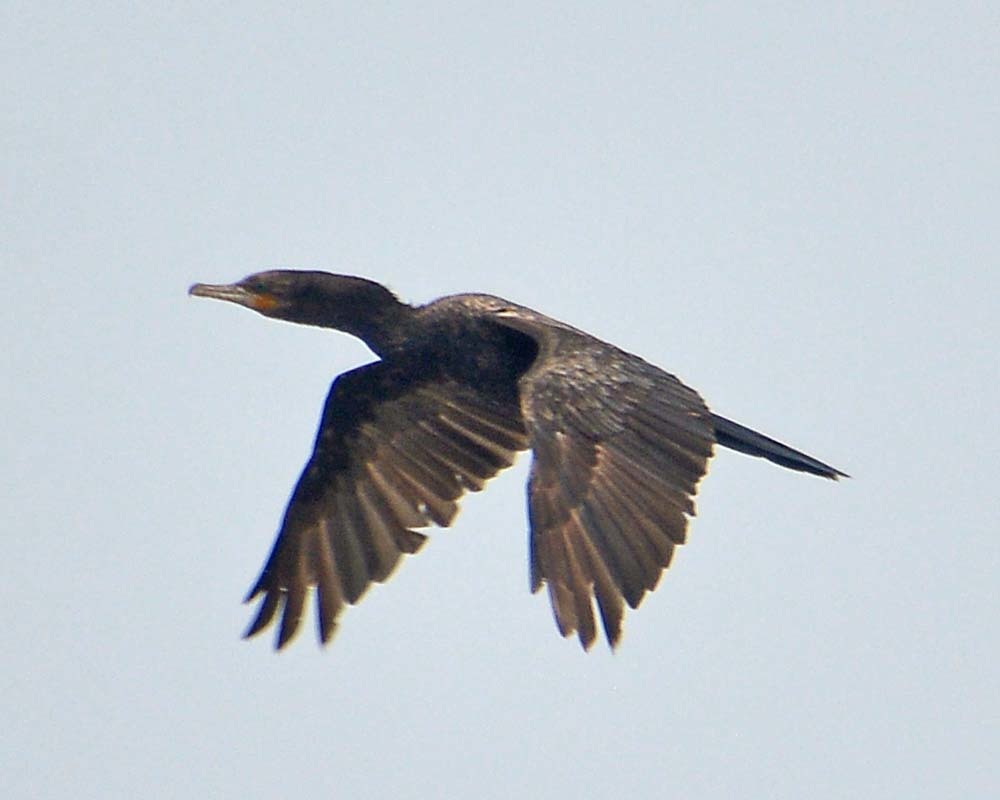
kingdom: Animalia
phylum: Chordata
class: Aves
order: Suliformes
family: Phalacrocoracidae
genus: Phalacrocorax
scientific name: Phalacrocorax brasilianus
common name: Neotropic cormorant
